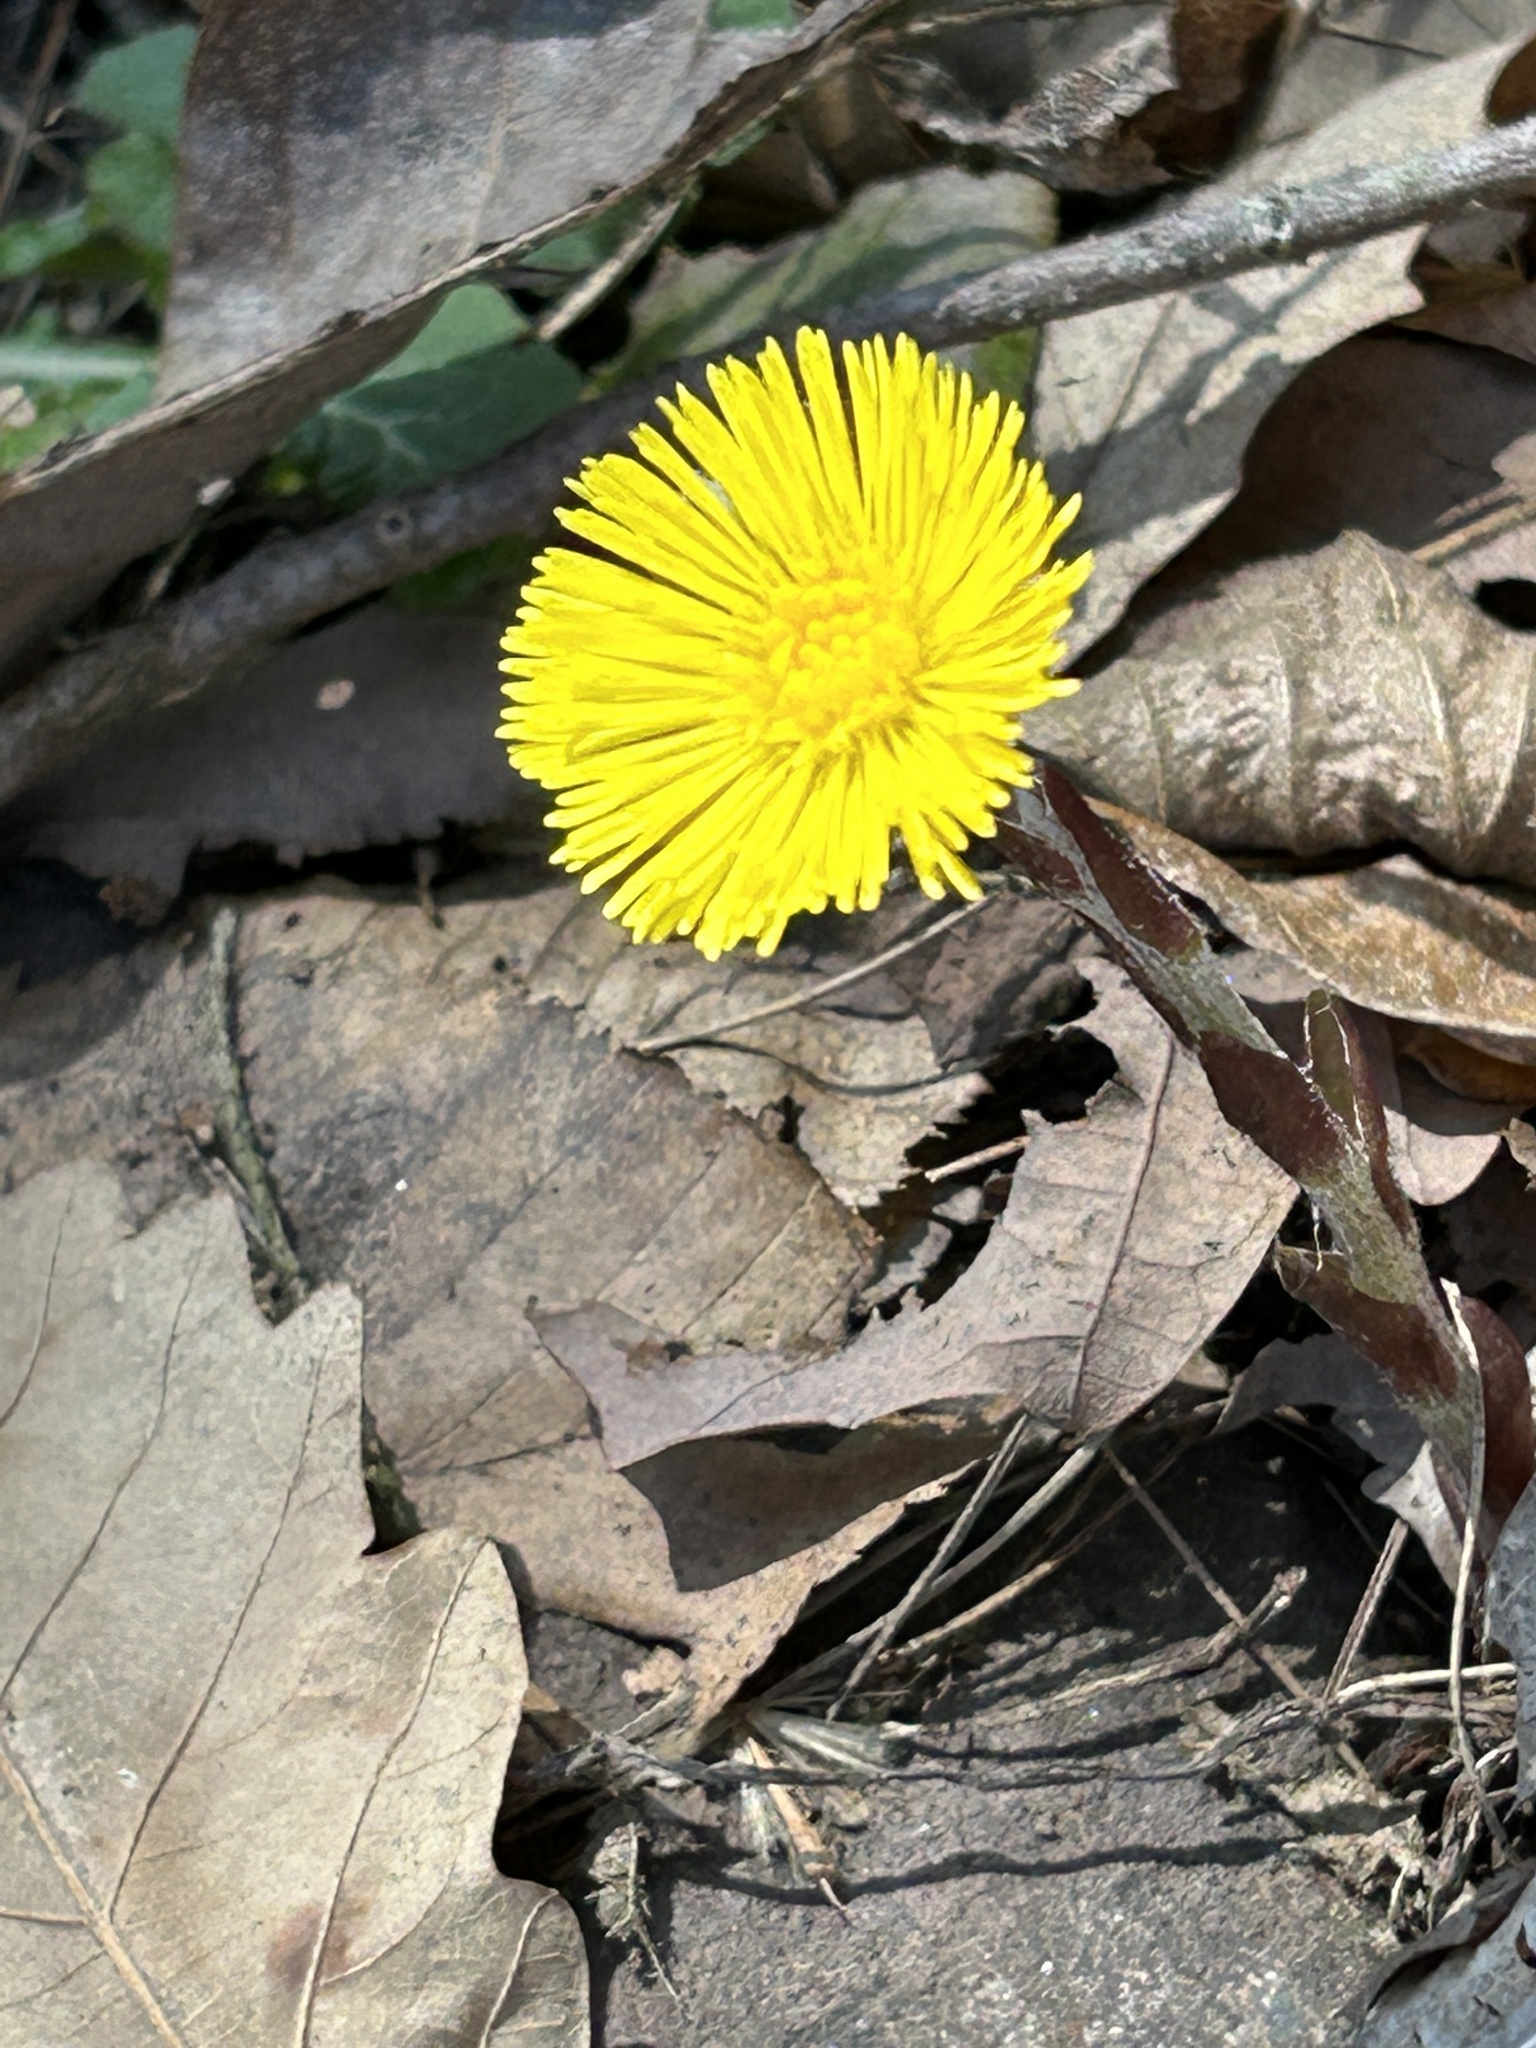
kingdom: Plantae
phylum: Tracheophyta
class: Magnoliopsida
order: Asterales
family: Asteraceae
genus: Tussilago
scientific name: Tussilago farfara
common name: Coltsfoot
